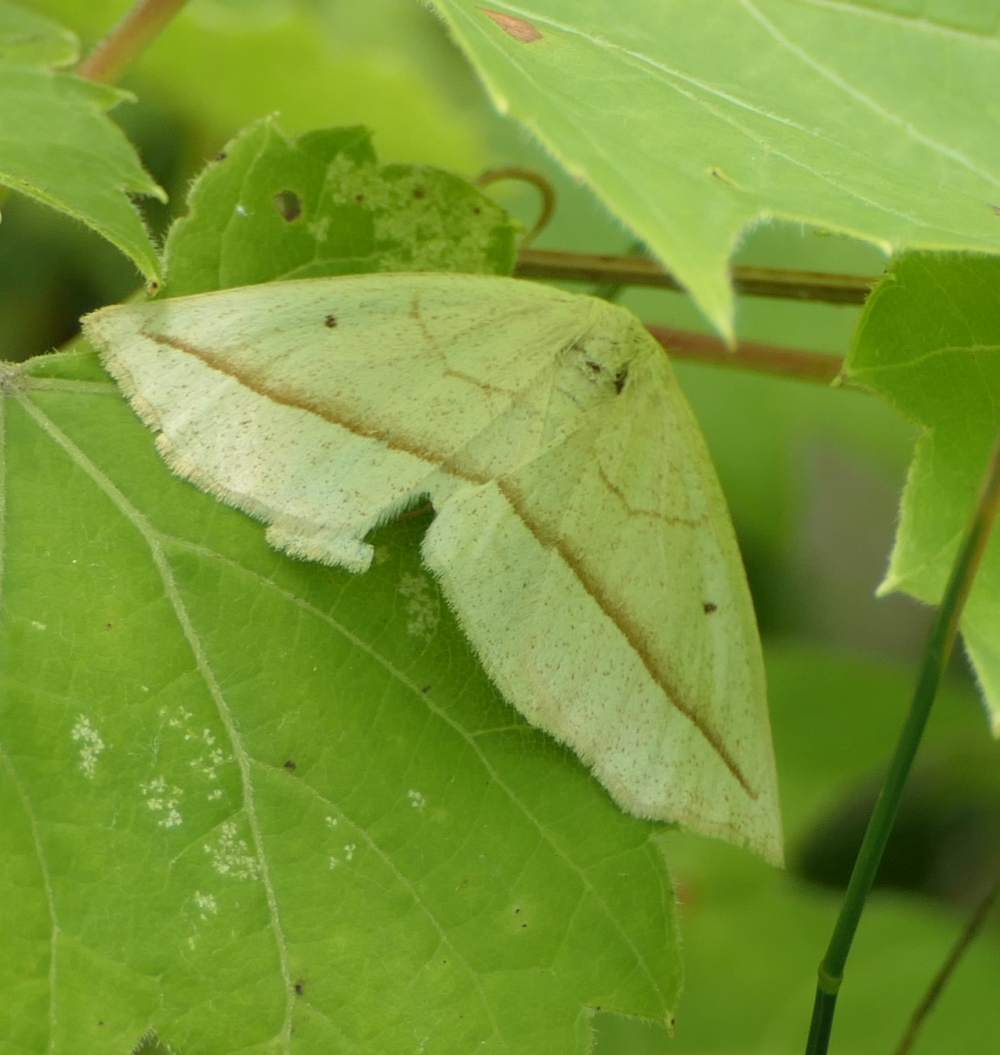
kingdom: Animalia
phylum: Arthropoda
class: Insecta
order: Lepidoptera
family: Geometridae
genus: Eusarca
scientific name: Eusarca confusaria
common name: Confused eusarca
